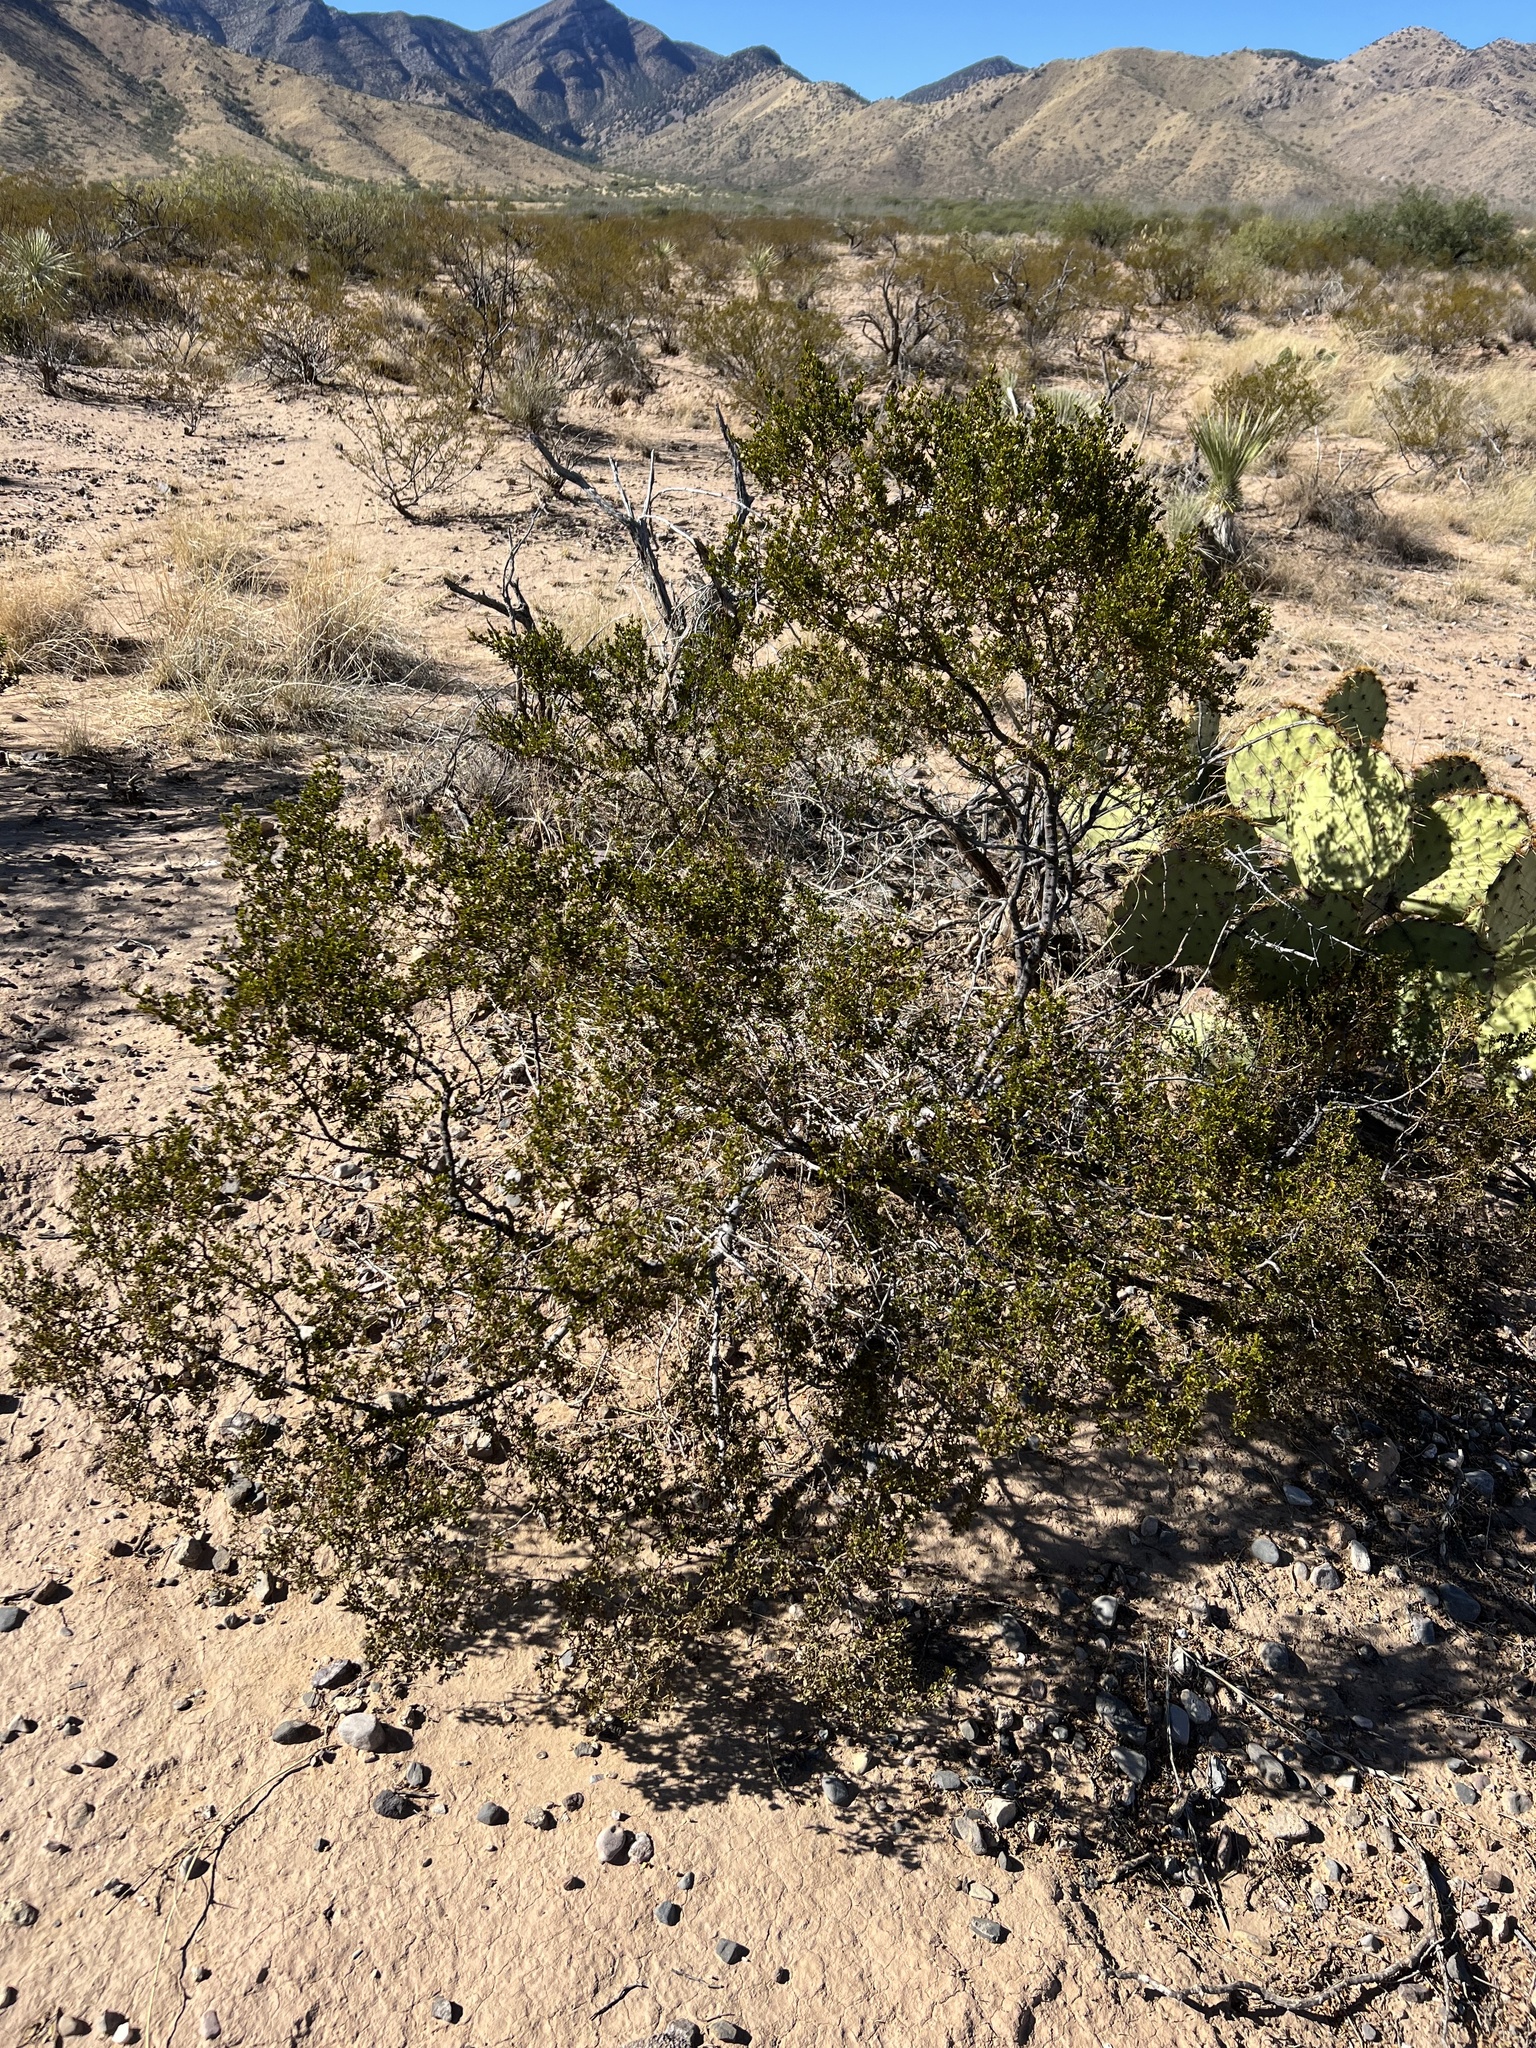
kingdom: Plantae
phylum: Tracheophyta
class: Magnoliopsida
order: Zygophyllales
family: Zygophyllaceae
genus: Larrea
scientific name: Larrea tridentata
